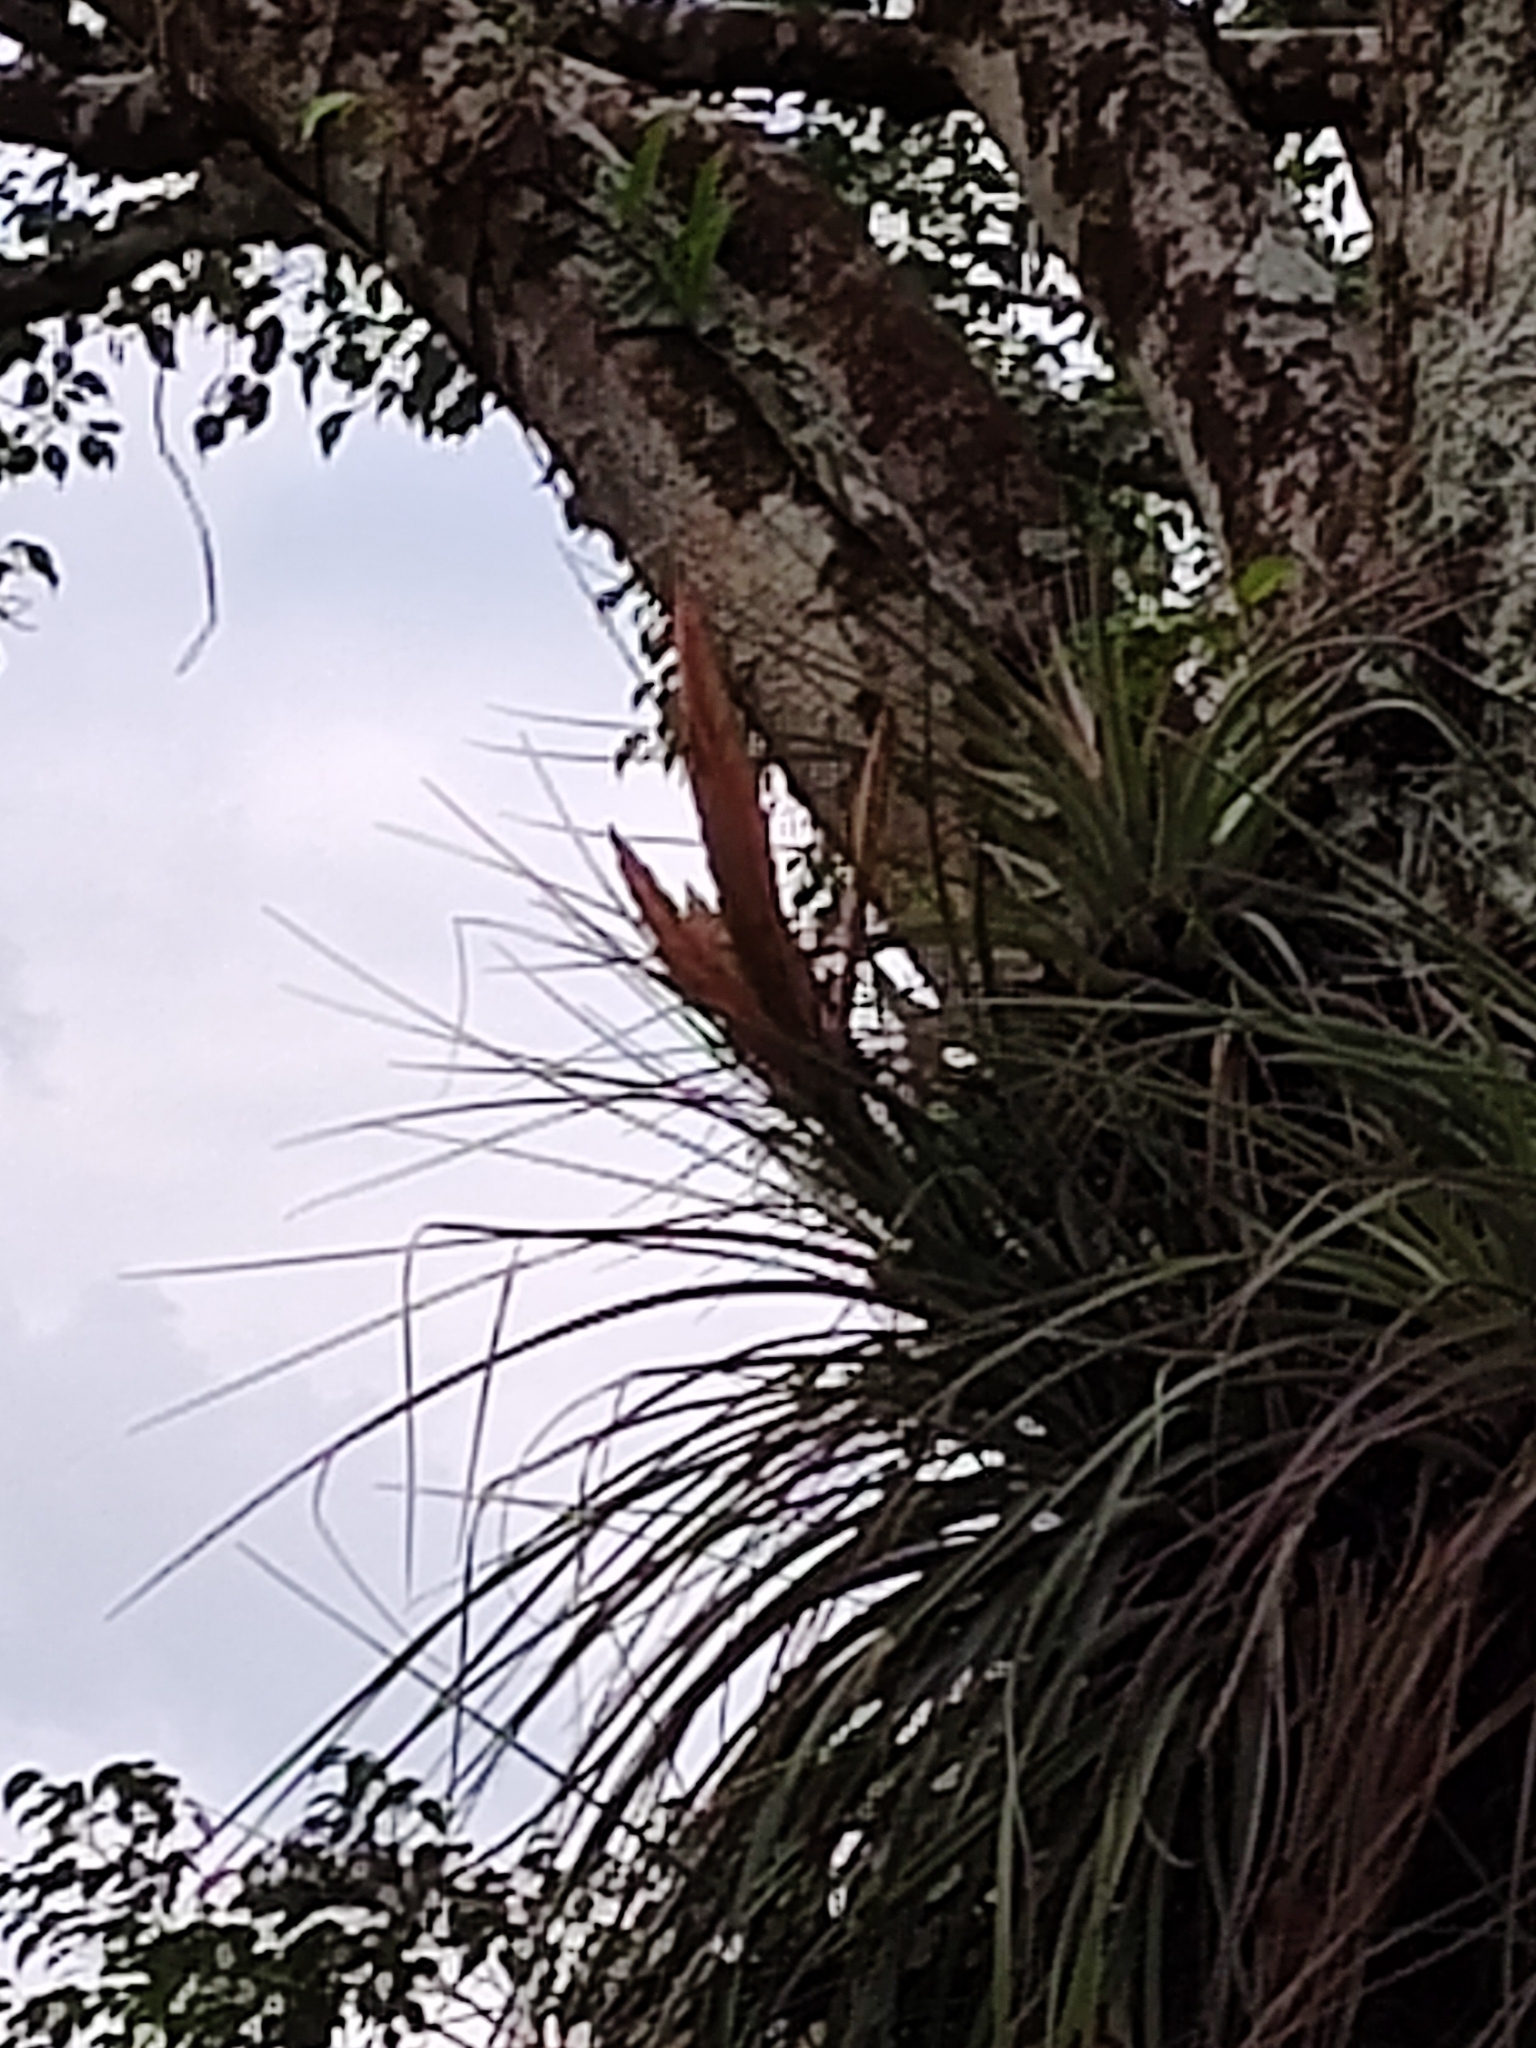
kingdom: Plantae
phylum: Tracheophyta
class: Liliopsida
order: Poales
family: Bromeliaceae
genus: Tillandsia
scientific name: Tillandsia fasciculata
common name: Giant airplant
